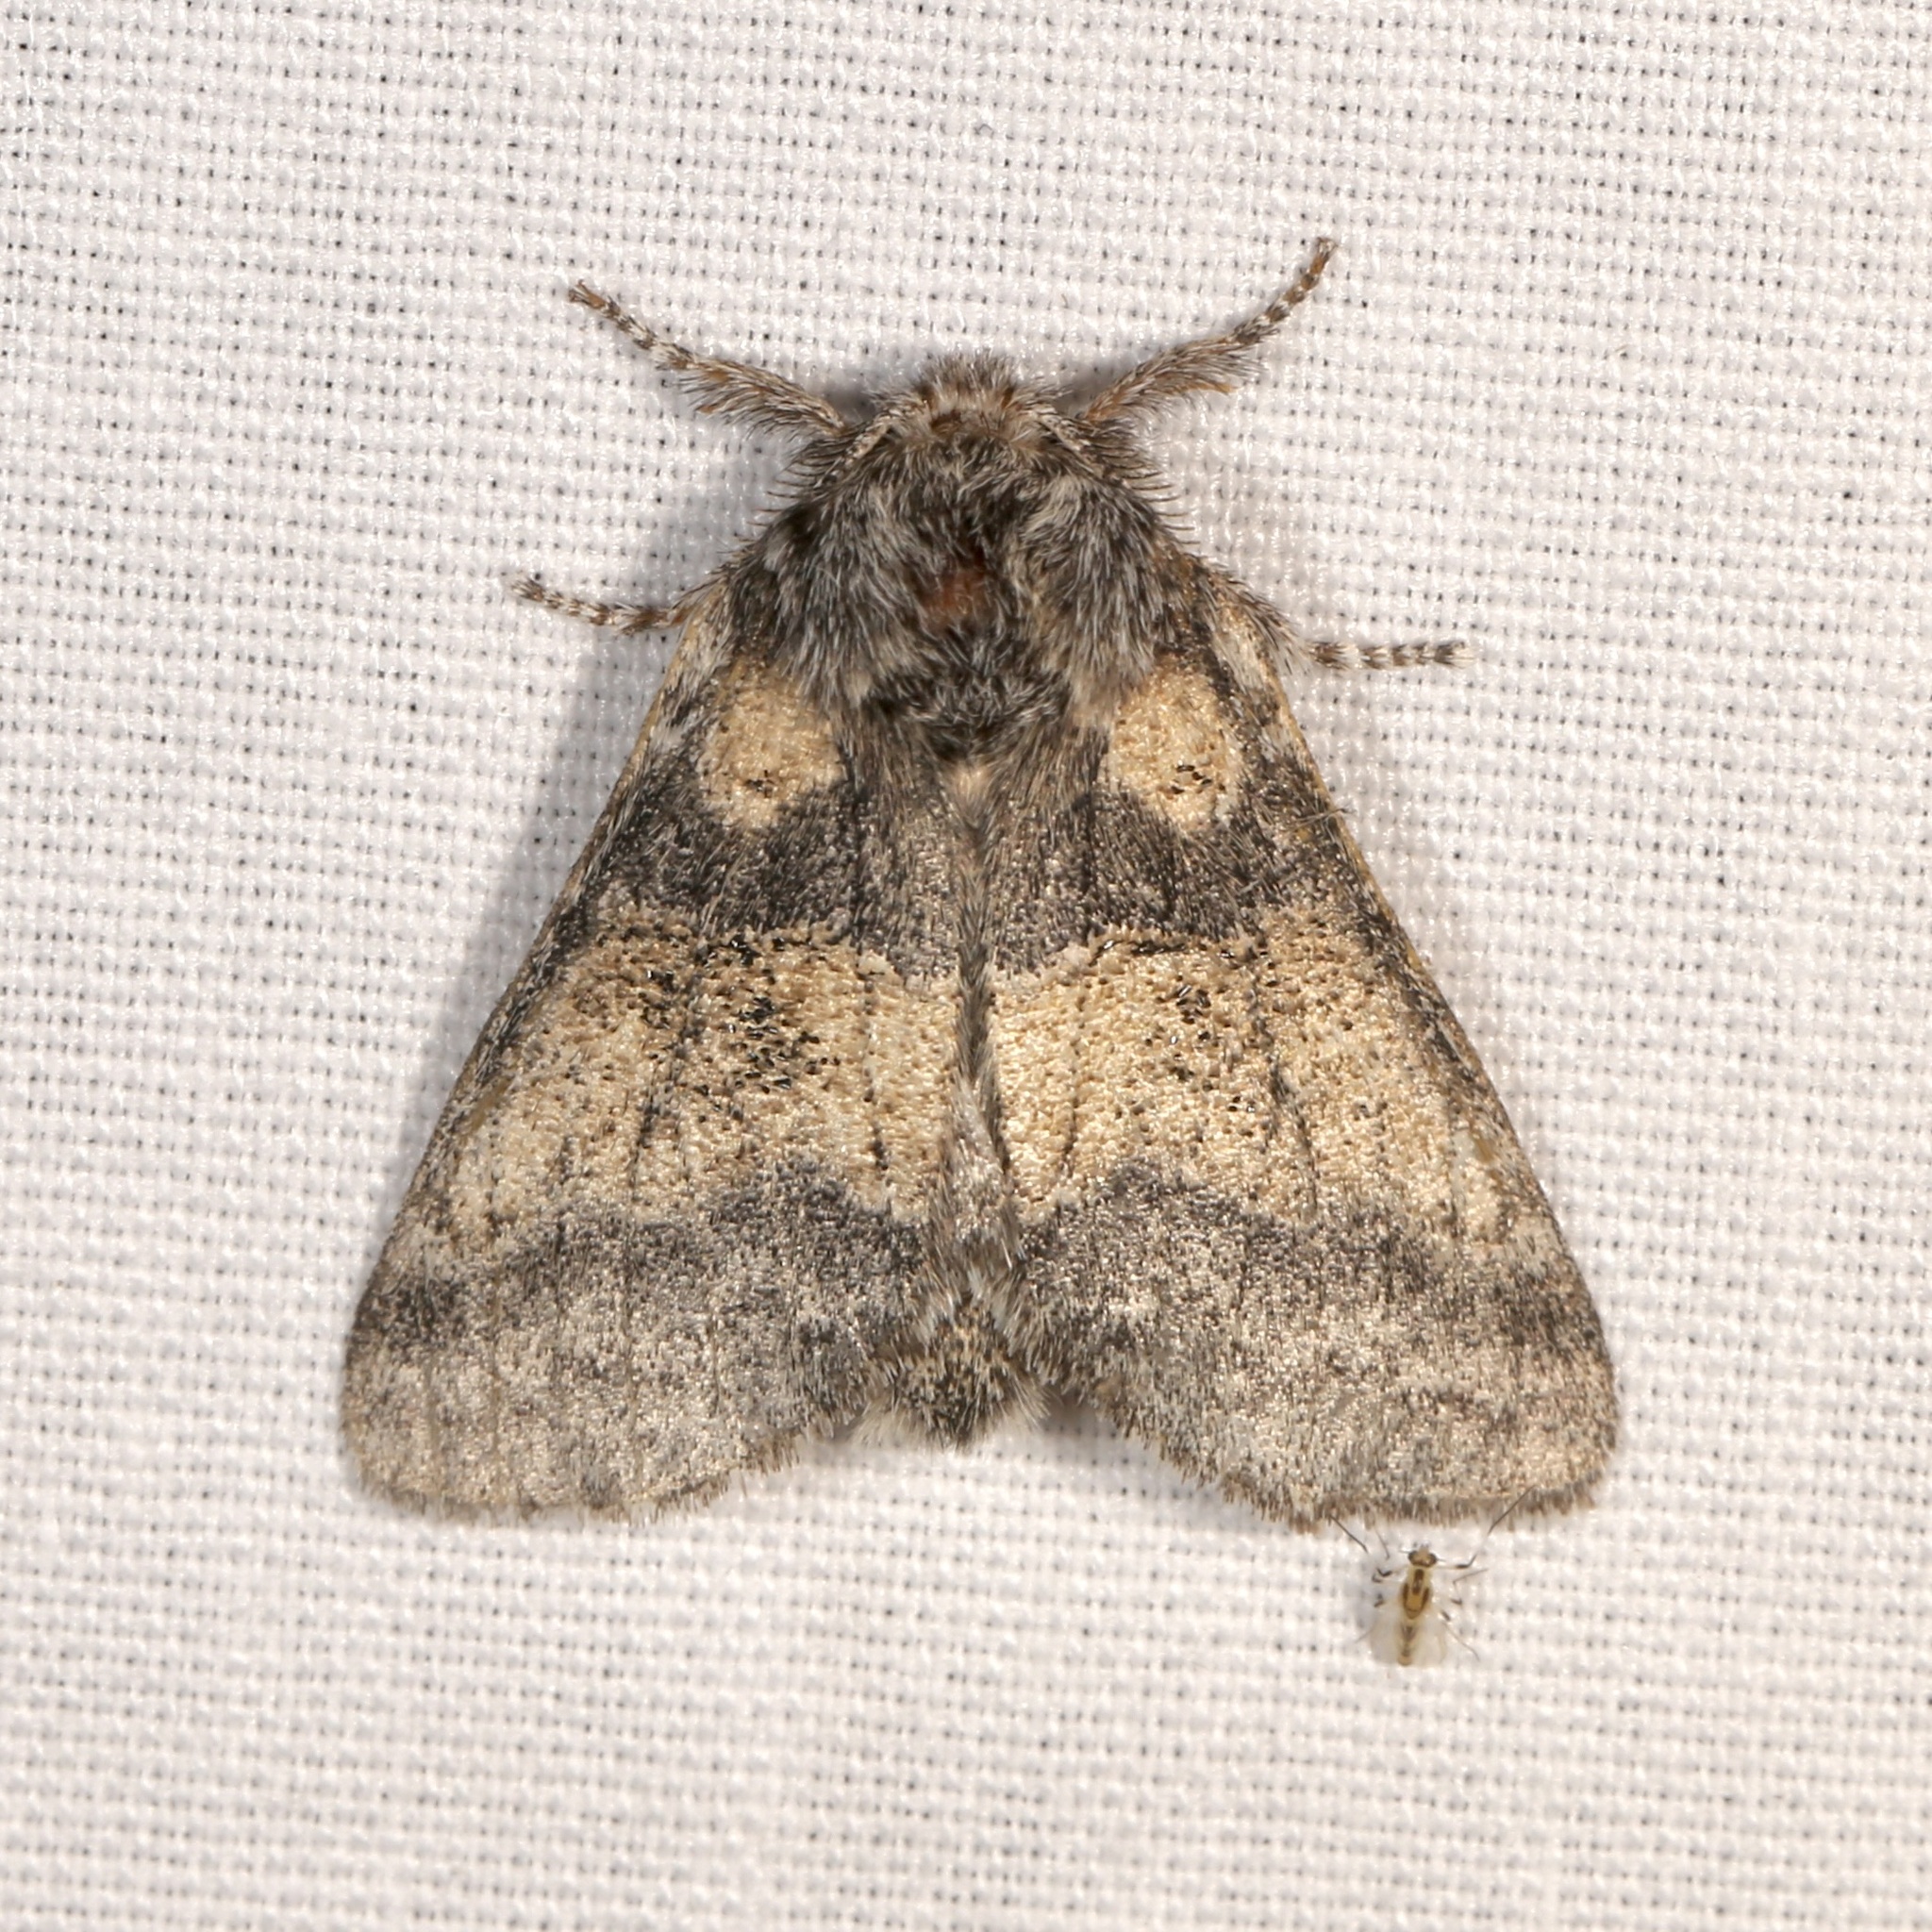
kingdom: Animalia
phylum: Arthropoda
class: Insecta
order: Lepidoptera
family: Notodontidae
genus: Gluphisia
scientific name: Gluphisia septentrionis
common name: Common gluphisia
